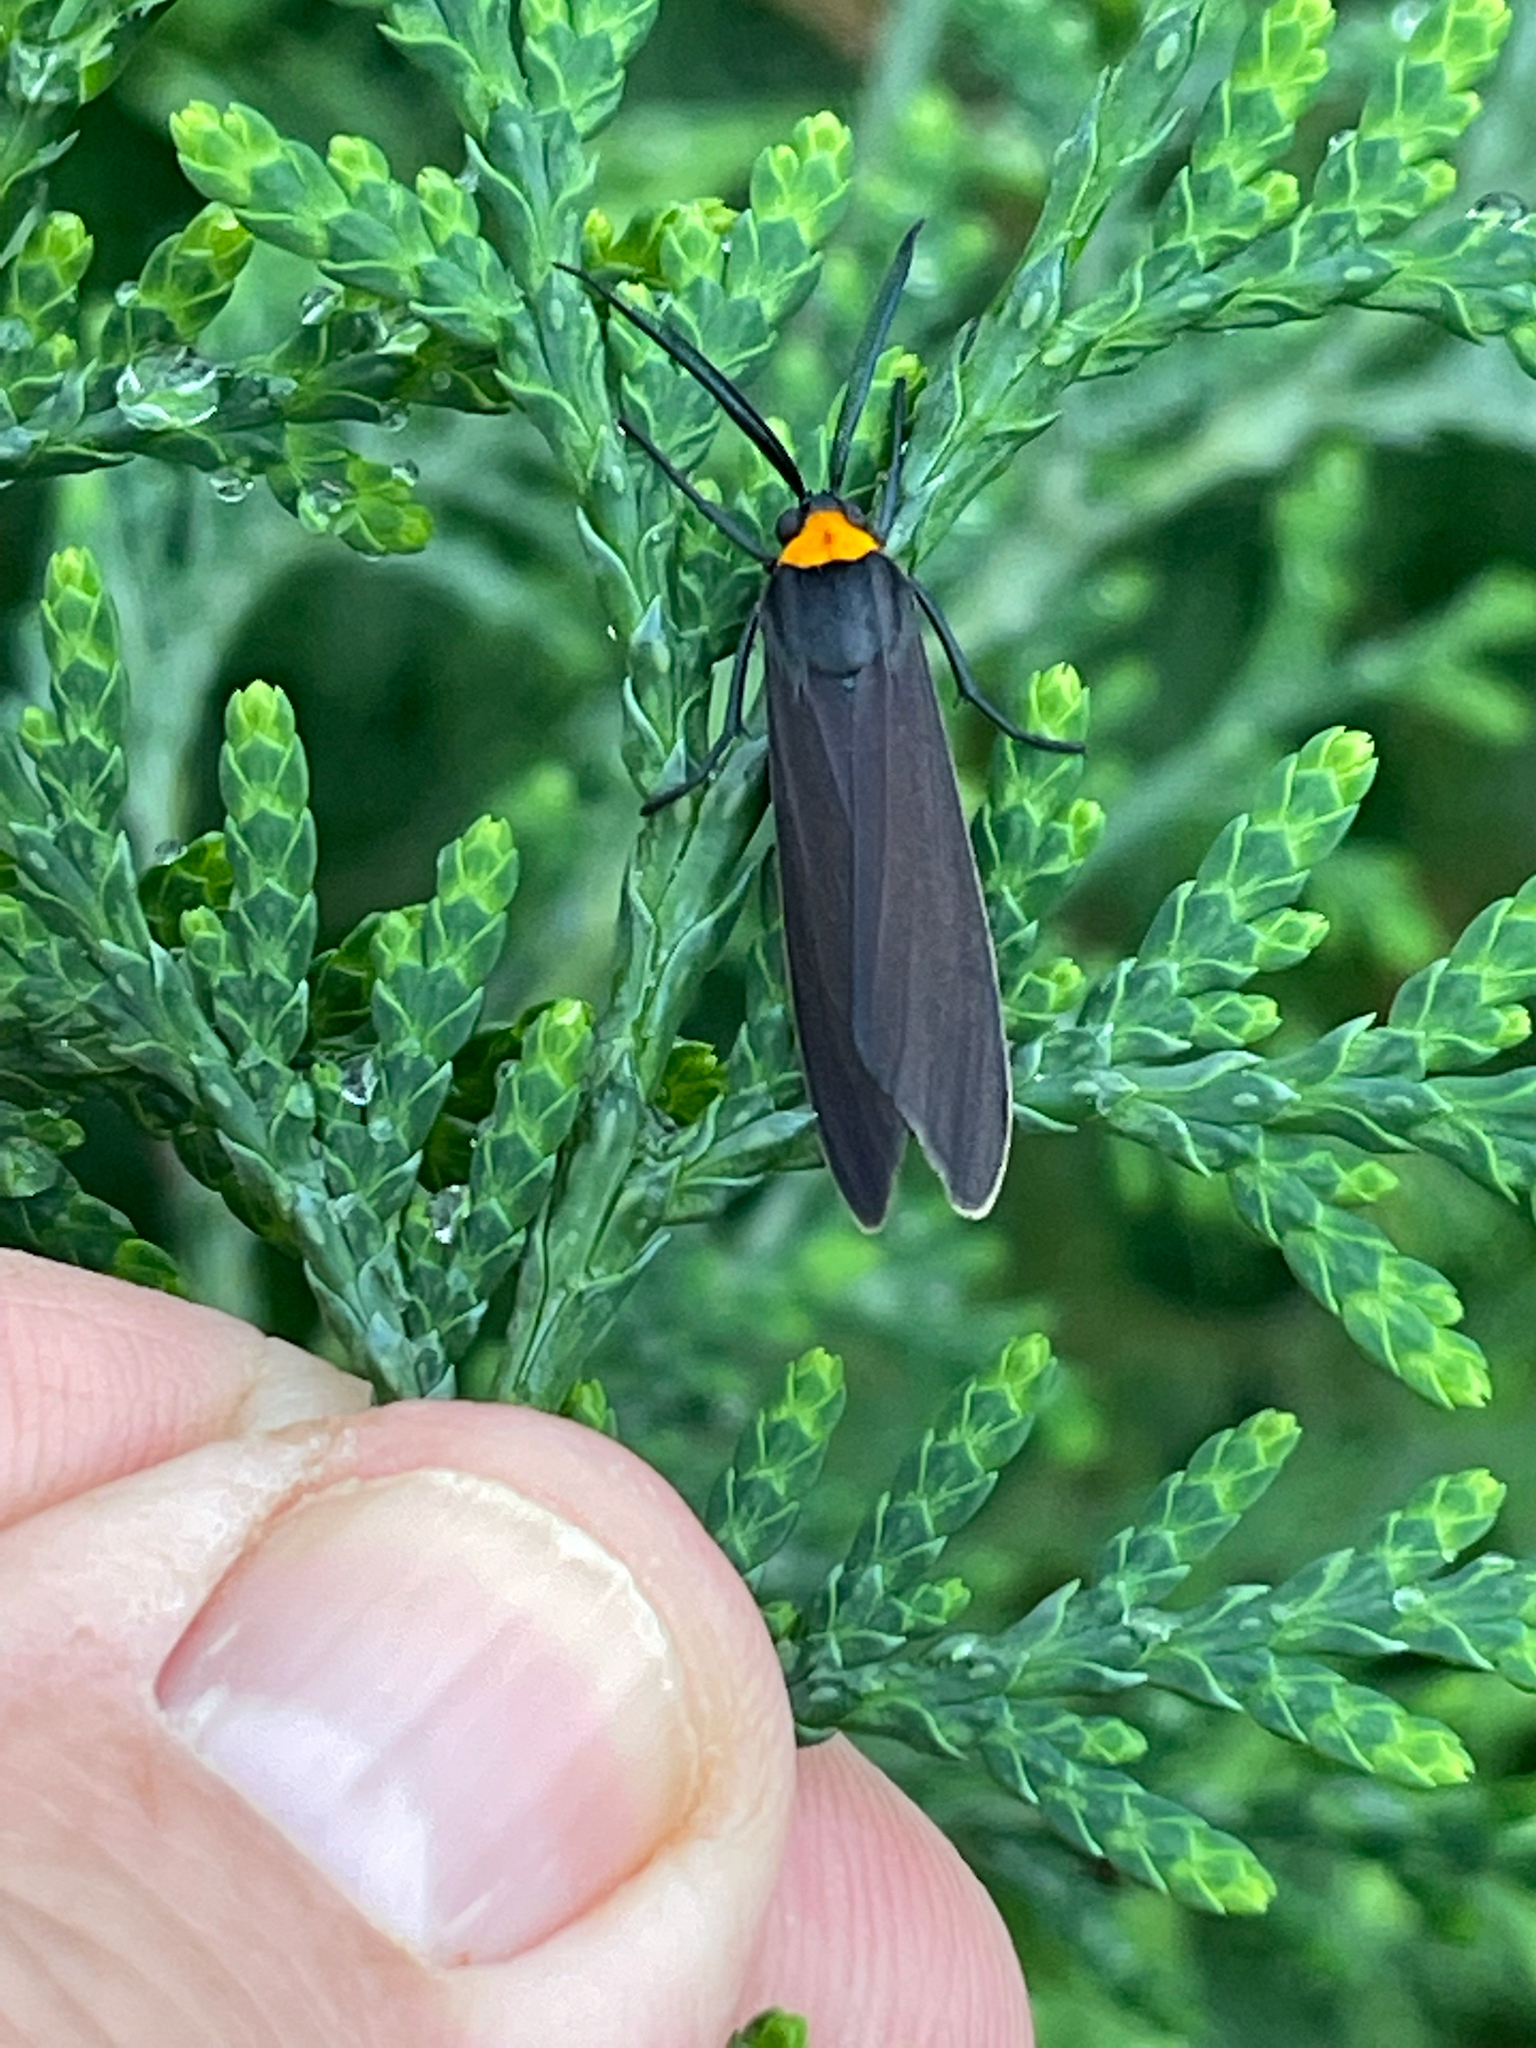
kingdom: Animalia
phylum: Arthropoda
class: Insecta
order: Lepidoptera
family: Erebidae
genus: Cisseps
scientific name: Cisseps fulvicollis
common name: Yellow-collared scape moth
